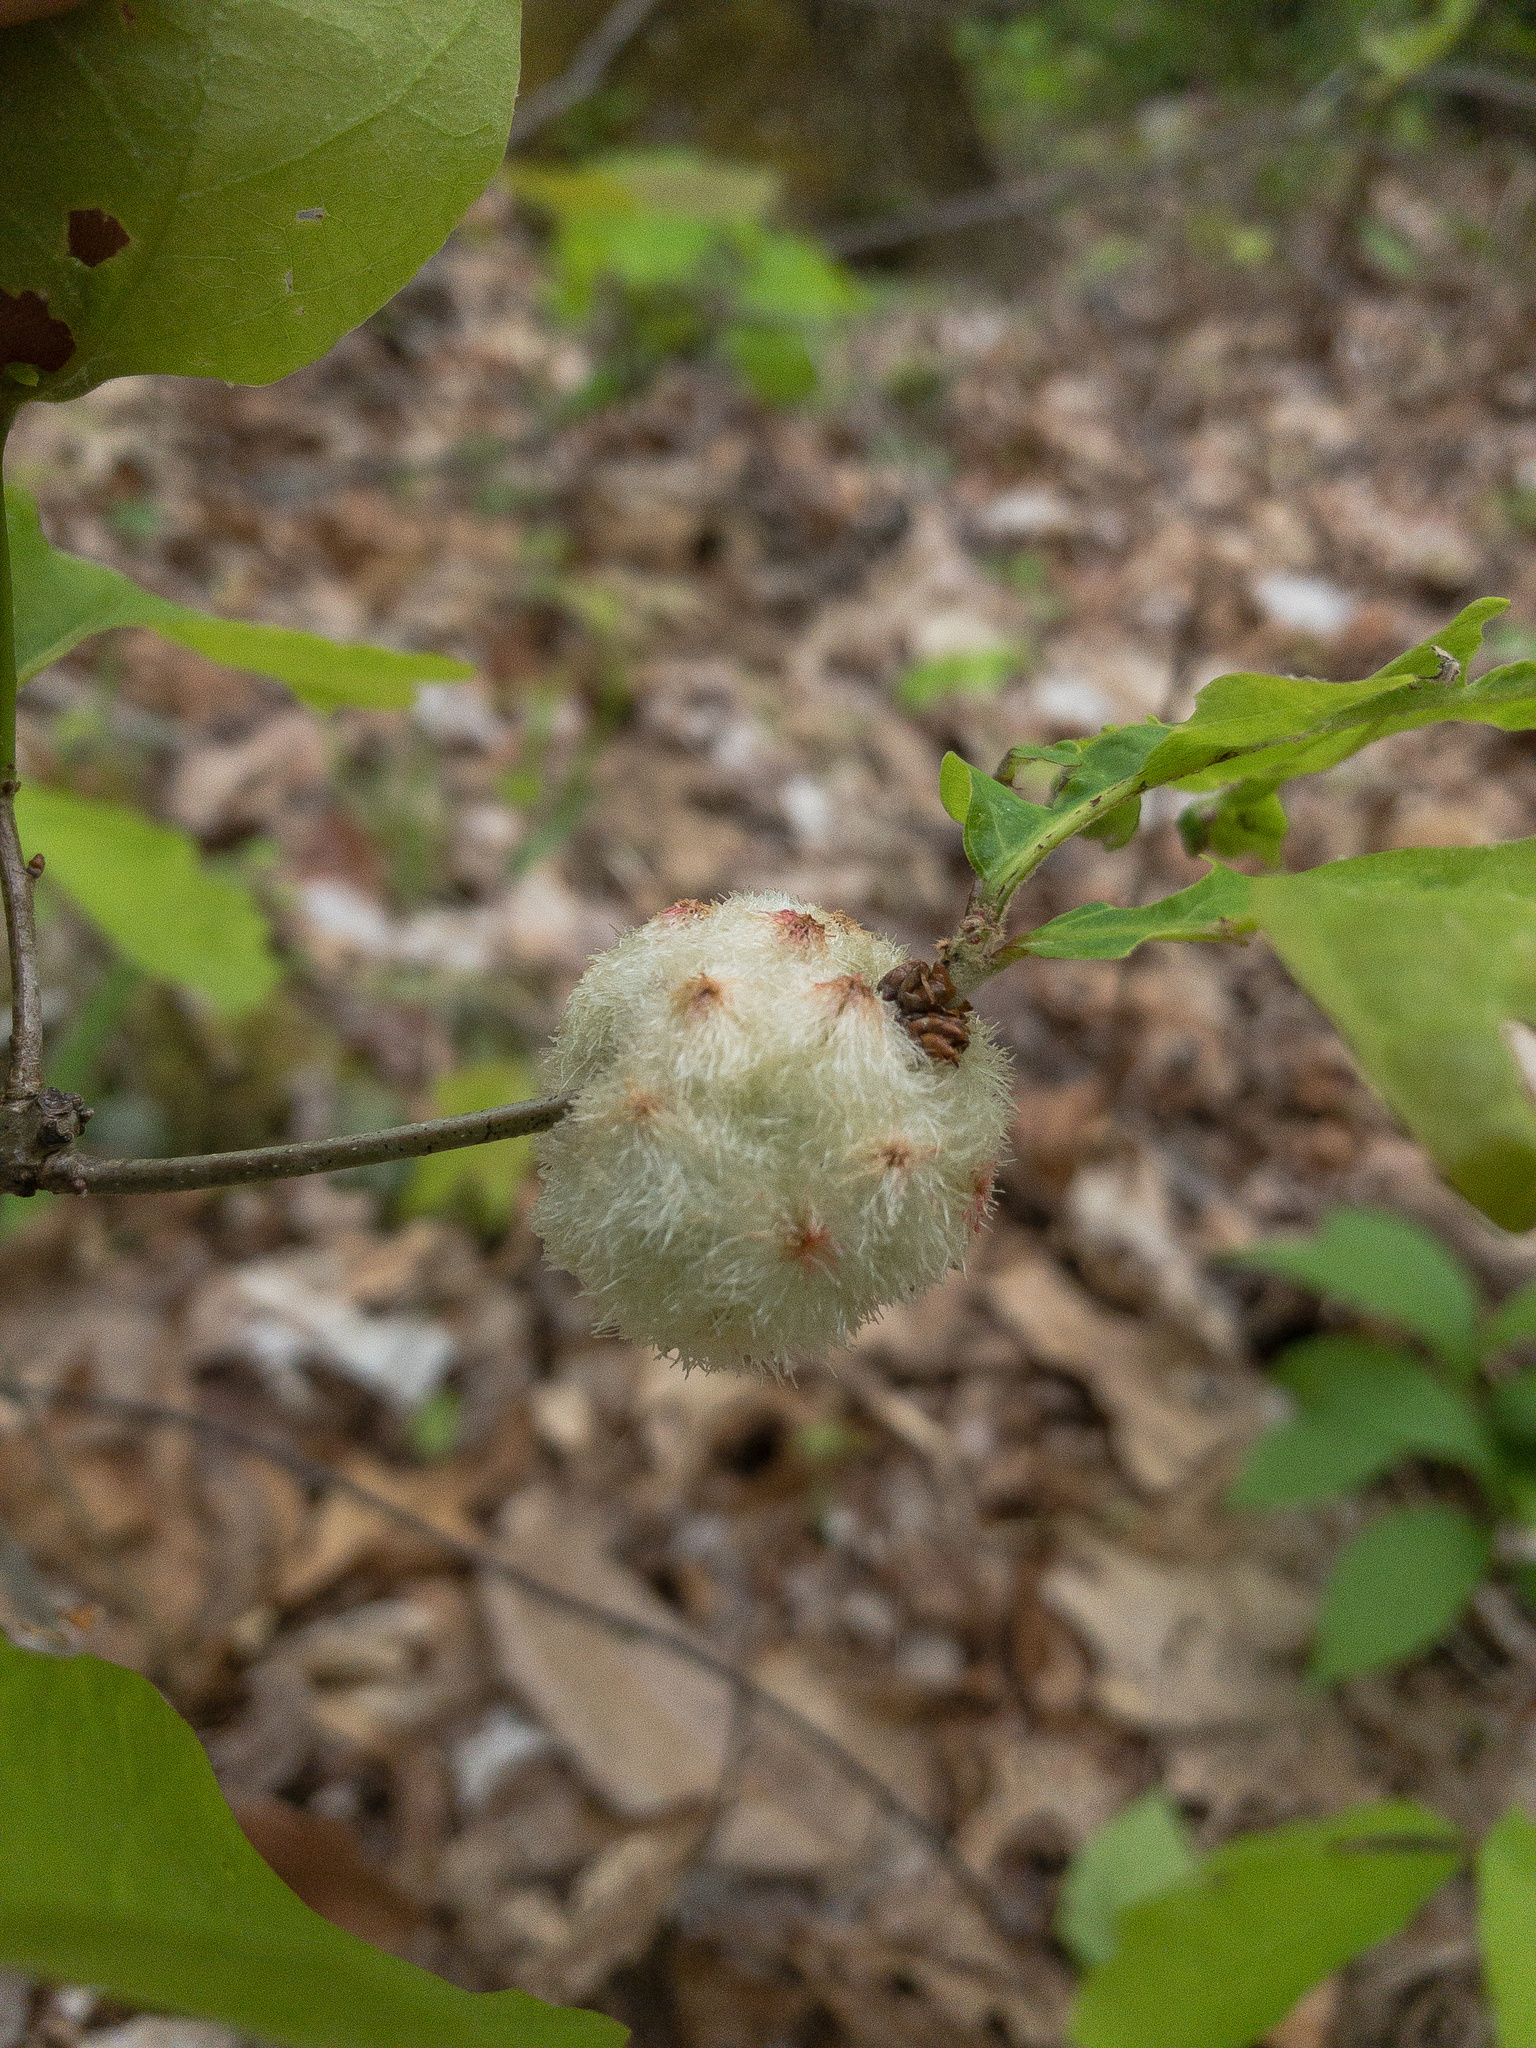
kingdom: Animalia
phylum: Arthropoda
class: Insecta
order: Hymenoptera
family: Cynipidae
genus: Callirhytis
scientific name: Callirhytis
